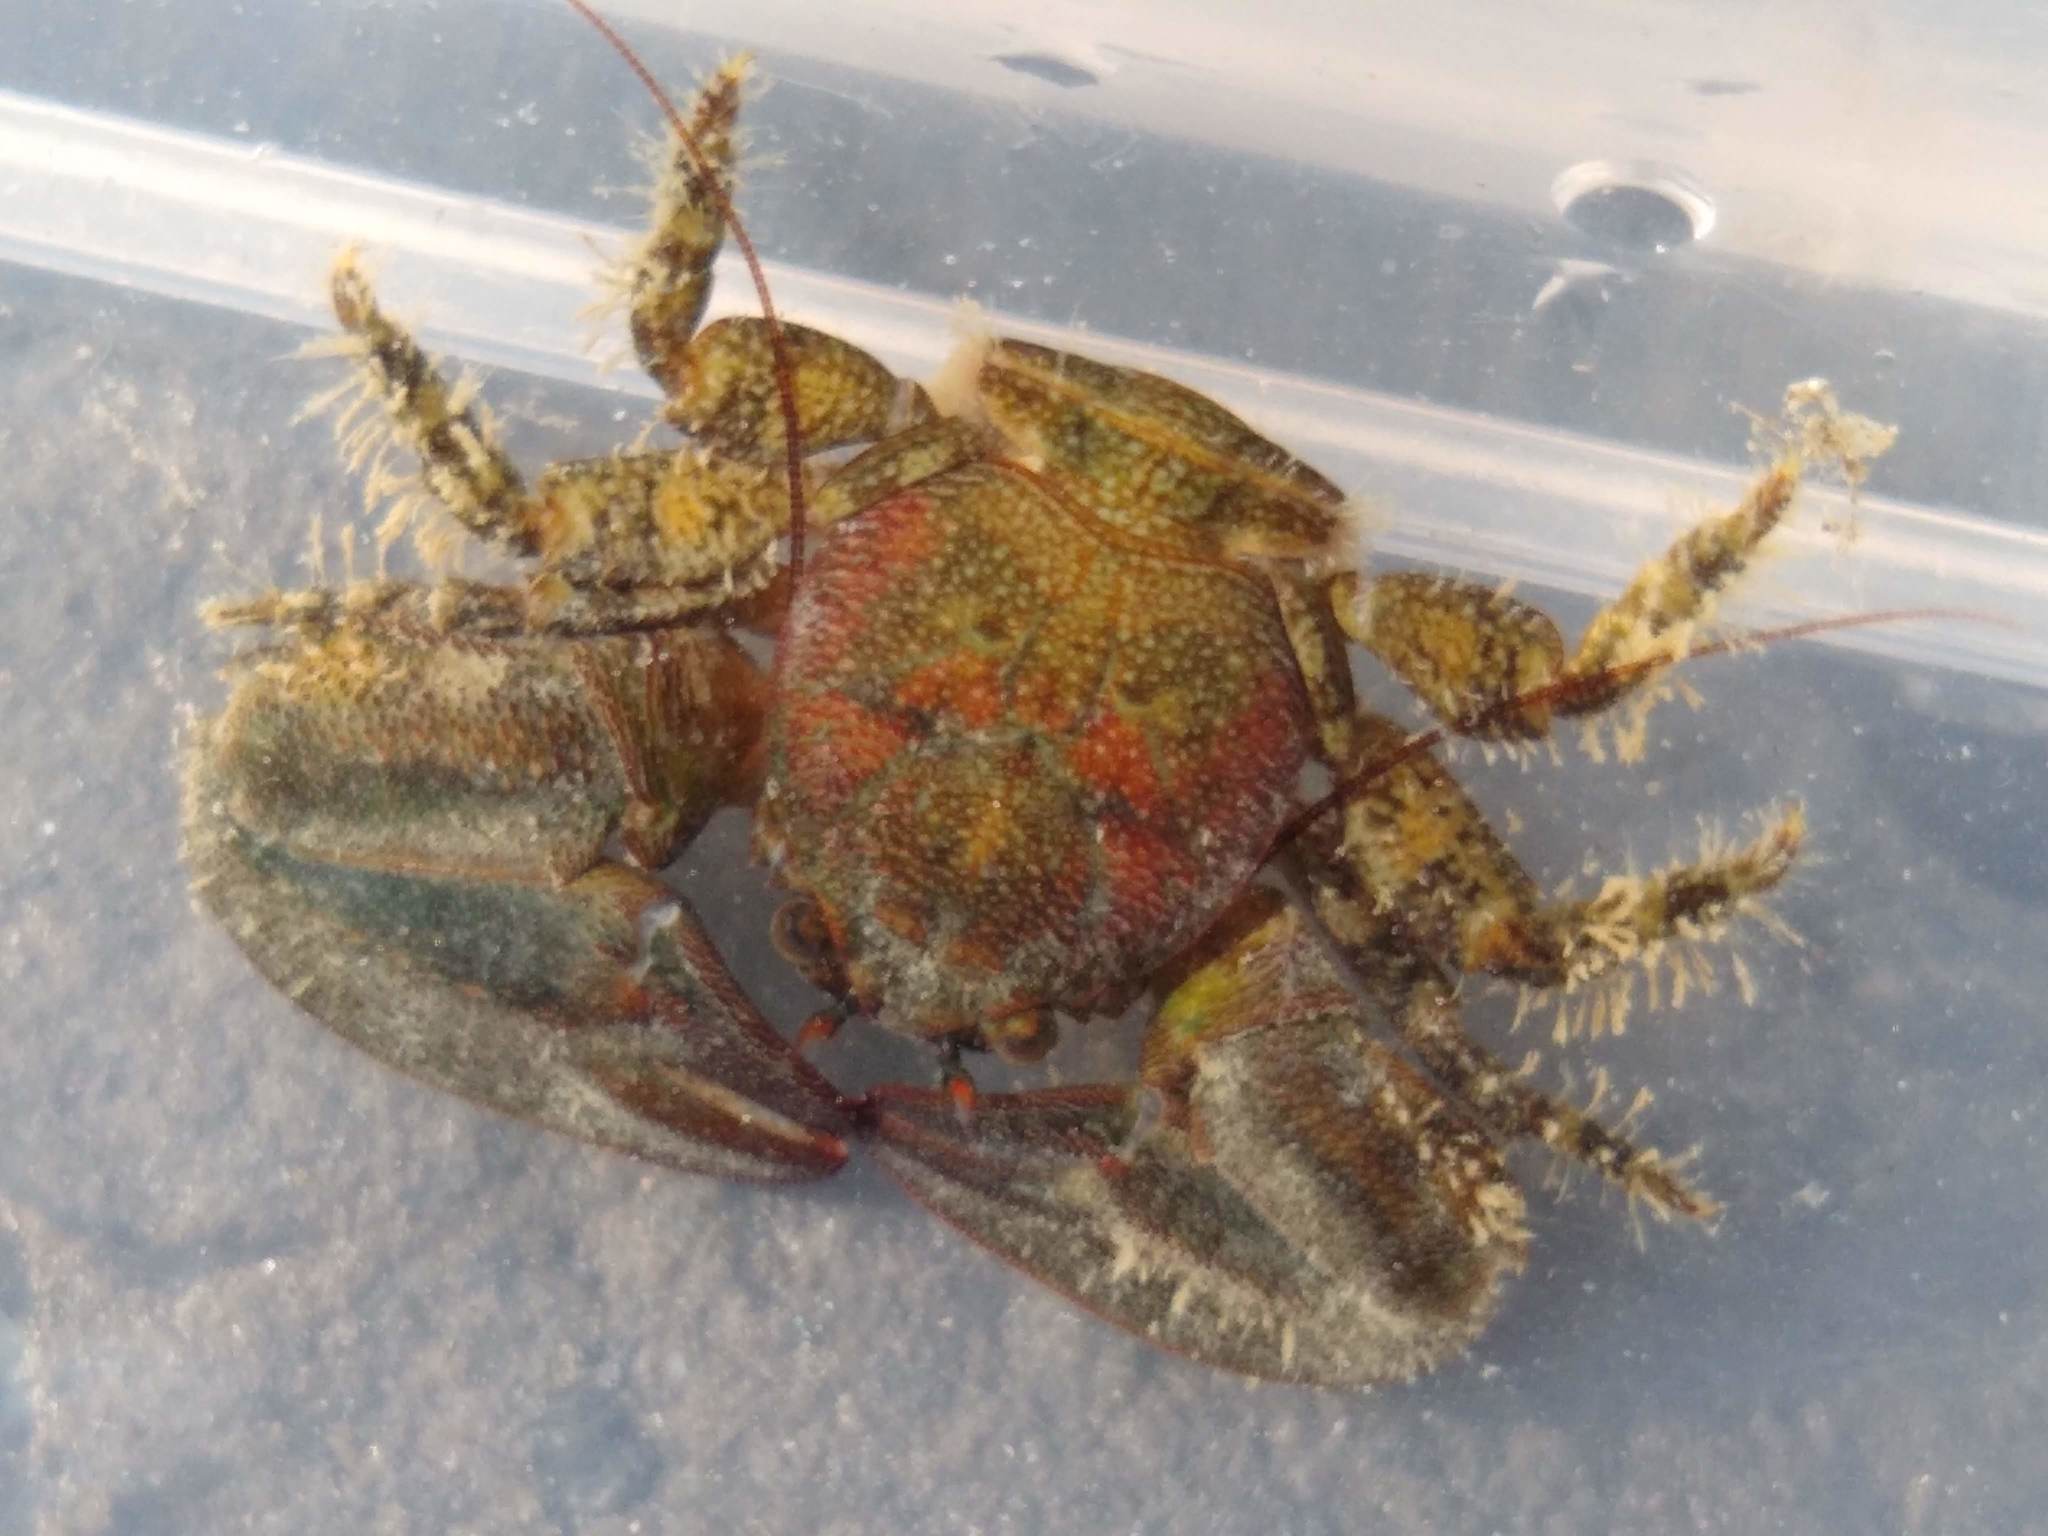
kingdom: Animalia
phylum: Arthropoda
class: Malacostraca
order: Decapoda
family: Porcellanidae
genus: Petrolisthes
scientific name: Petrolisthes elongatus
